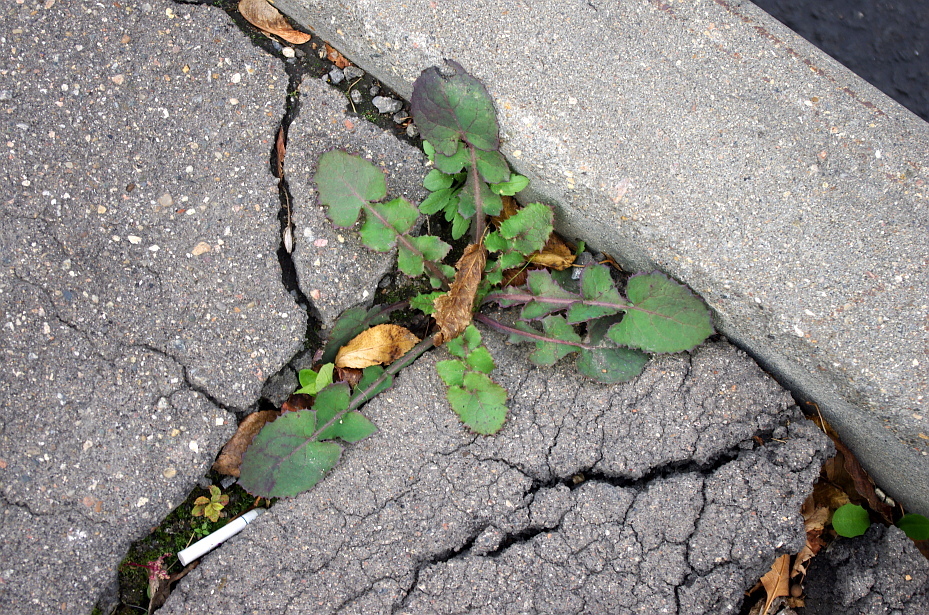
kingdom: Plantae
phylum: Tracheophyta
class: Magnoliopsida
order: Asterales
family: Asteraceae
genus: Sonchus
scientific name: Sonchus oleraceus
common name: Common sowthistle
